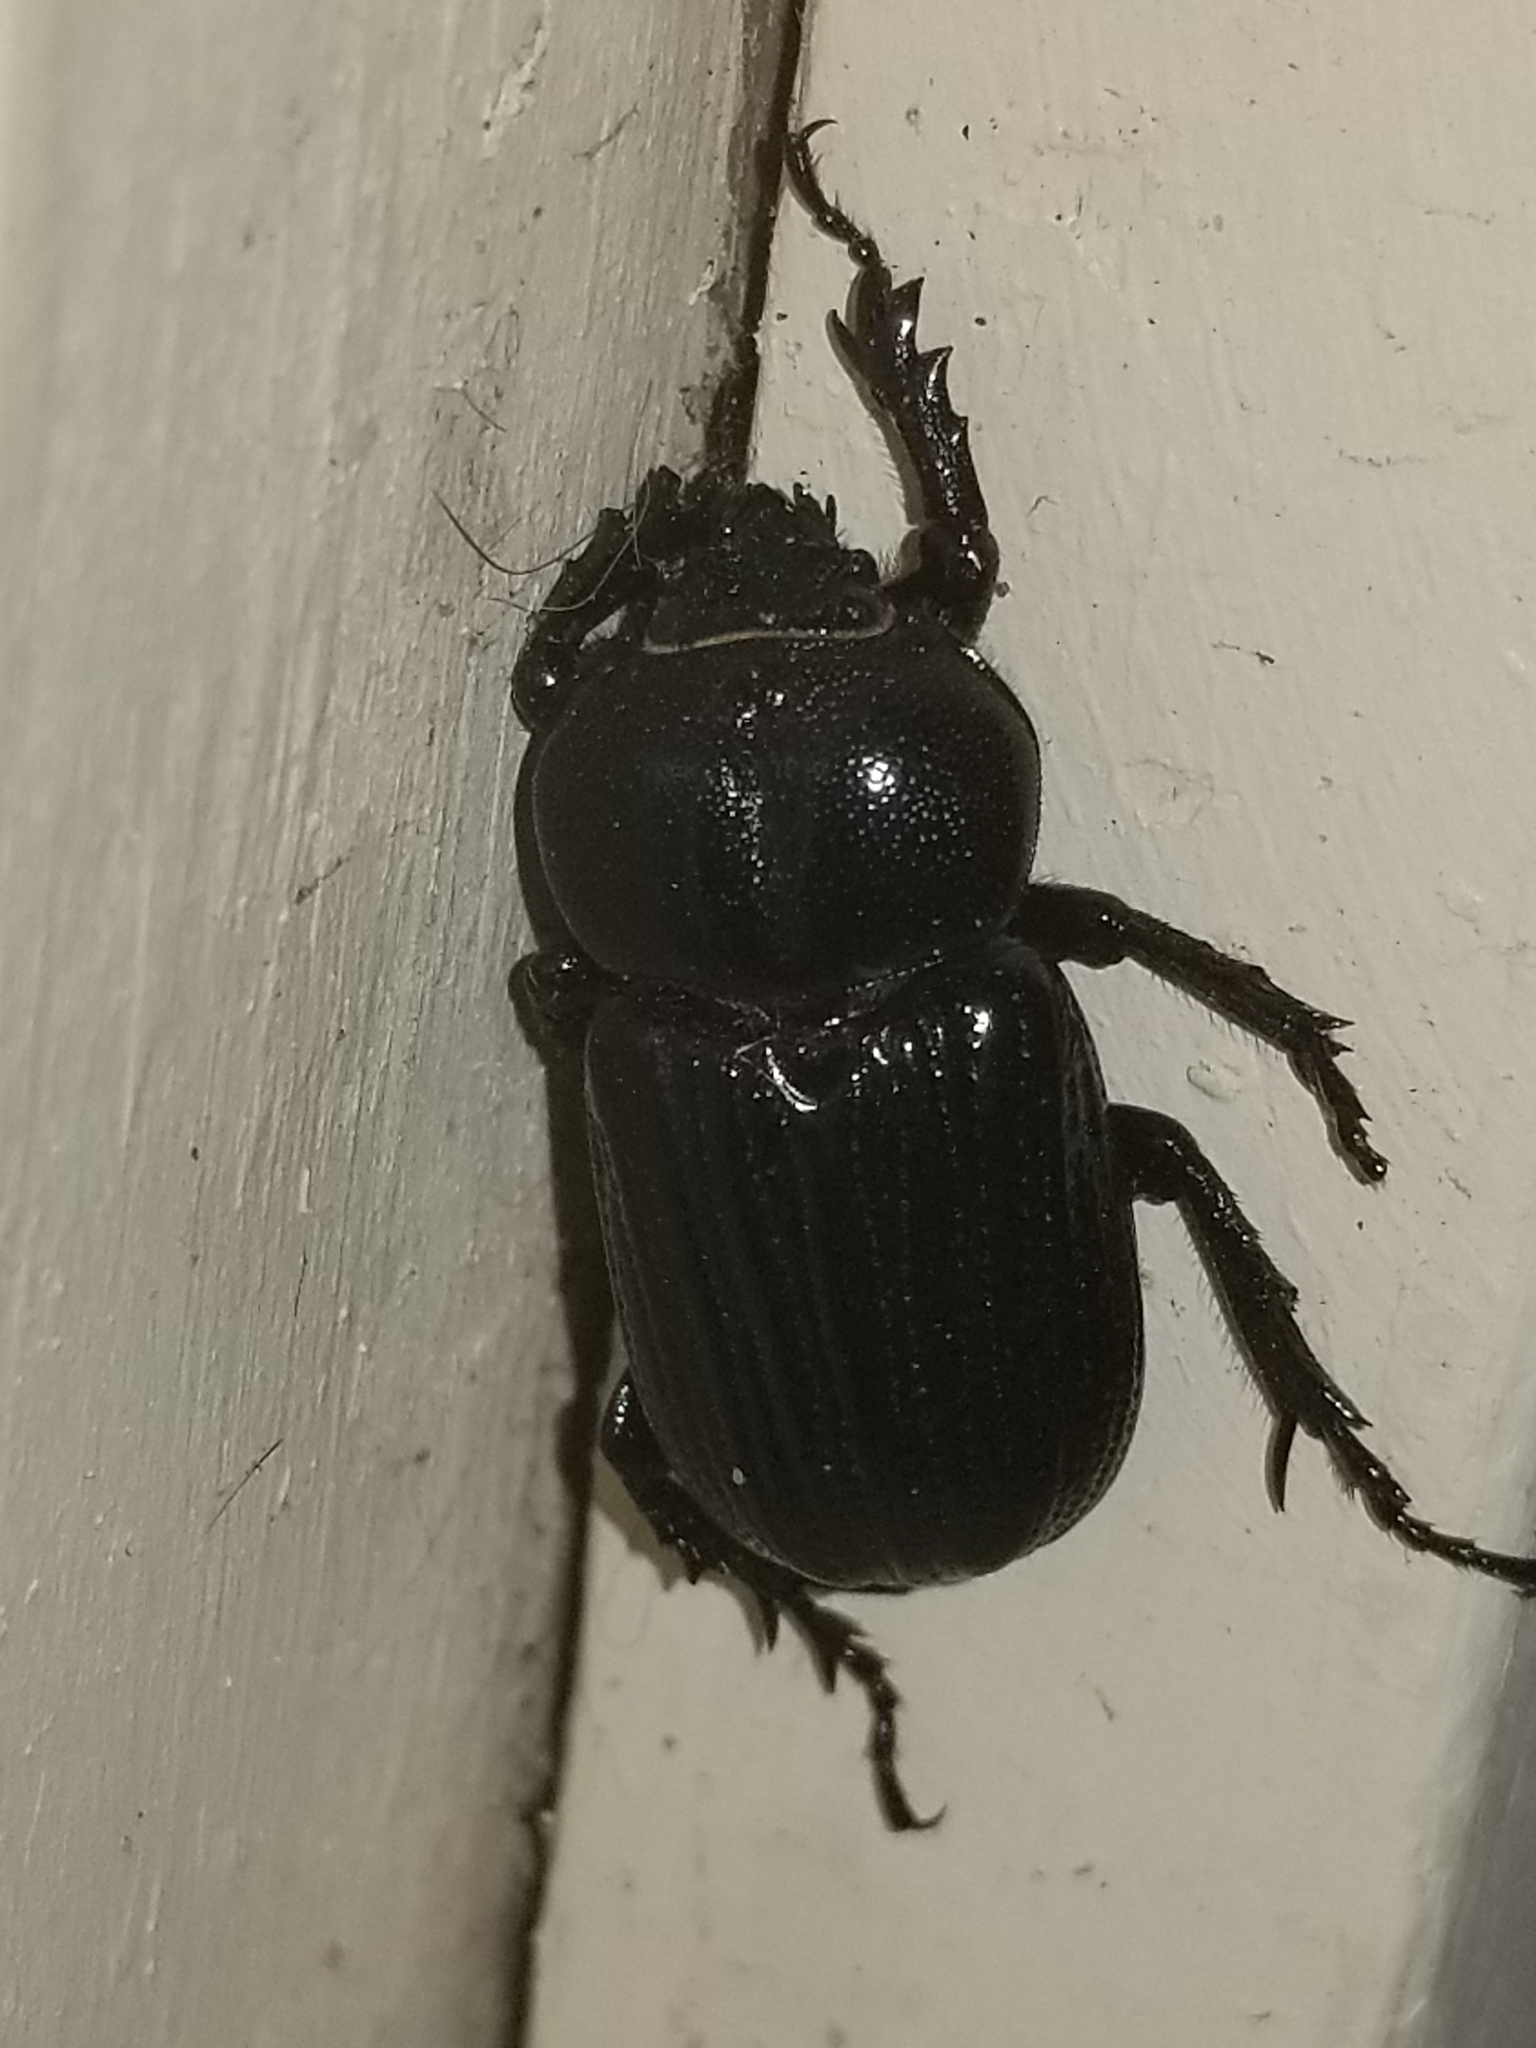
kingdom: Animalia
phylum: Arthropoda
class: Insecta
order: Coleoptera
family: Scarabaeidae
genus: Phileurus
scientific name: Phileurus valgus
